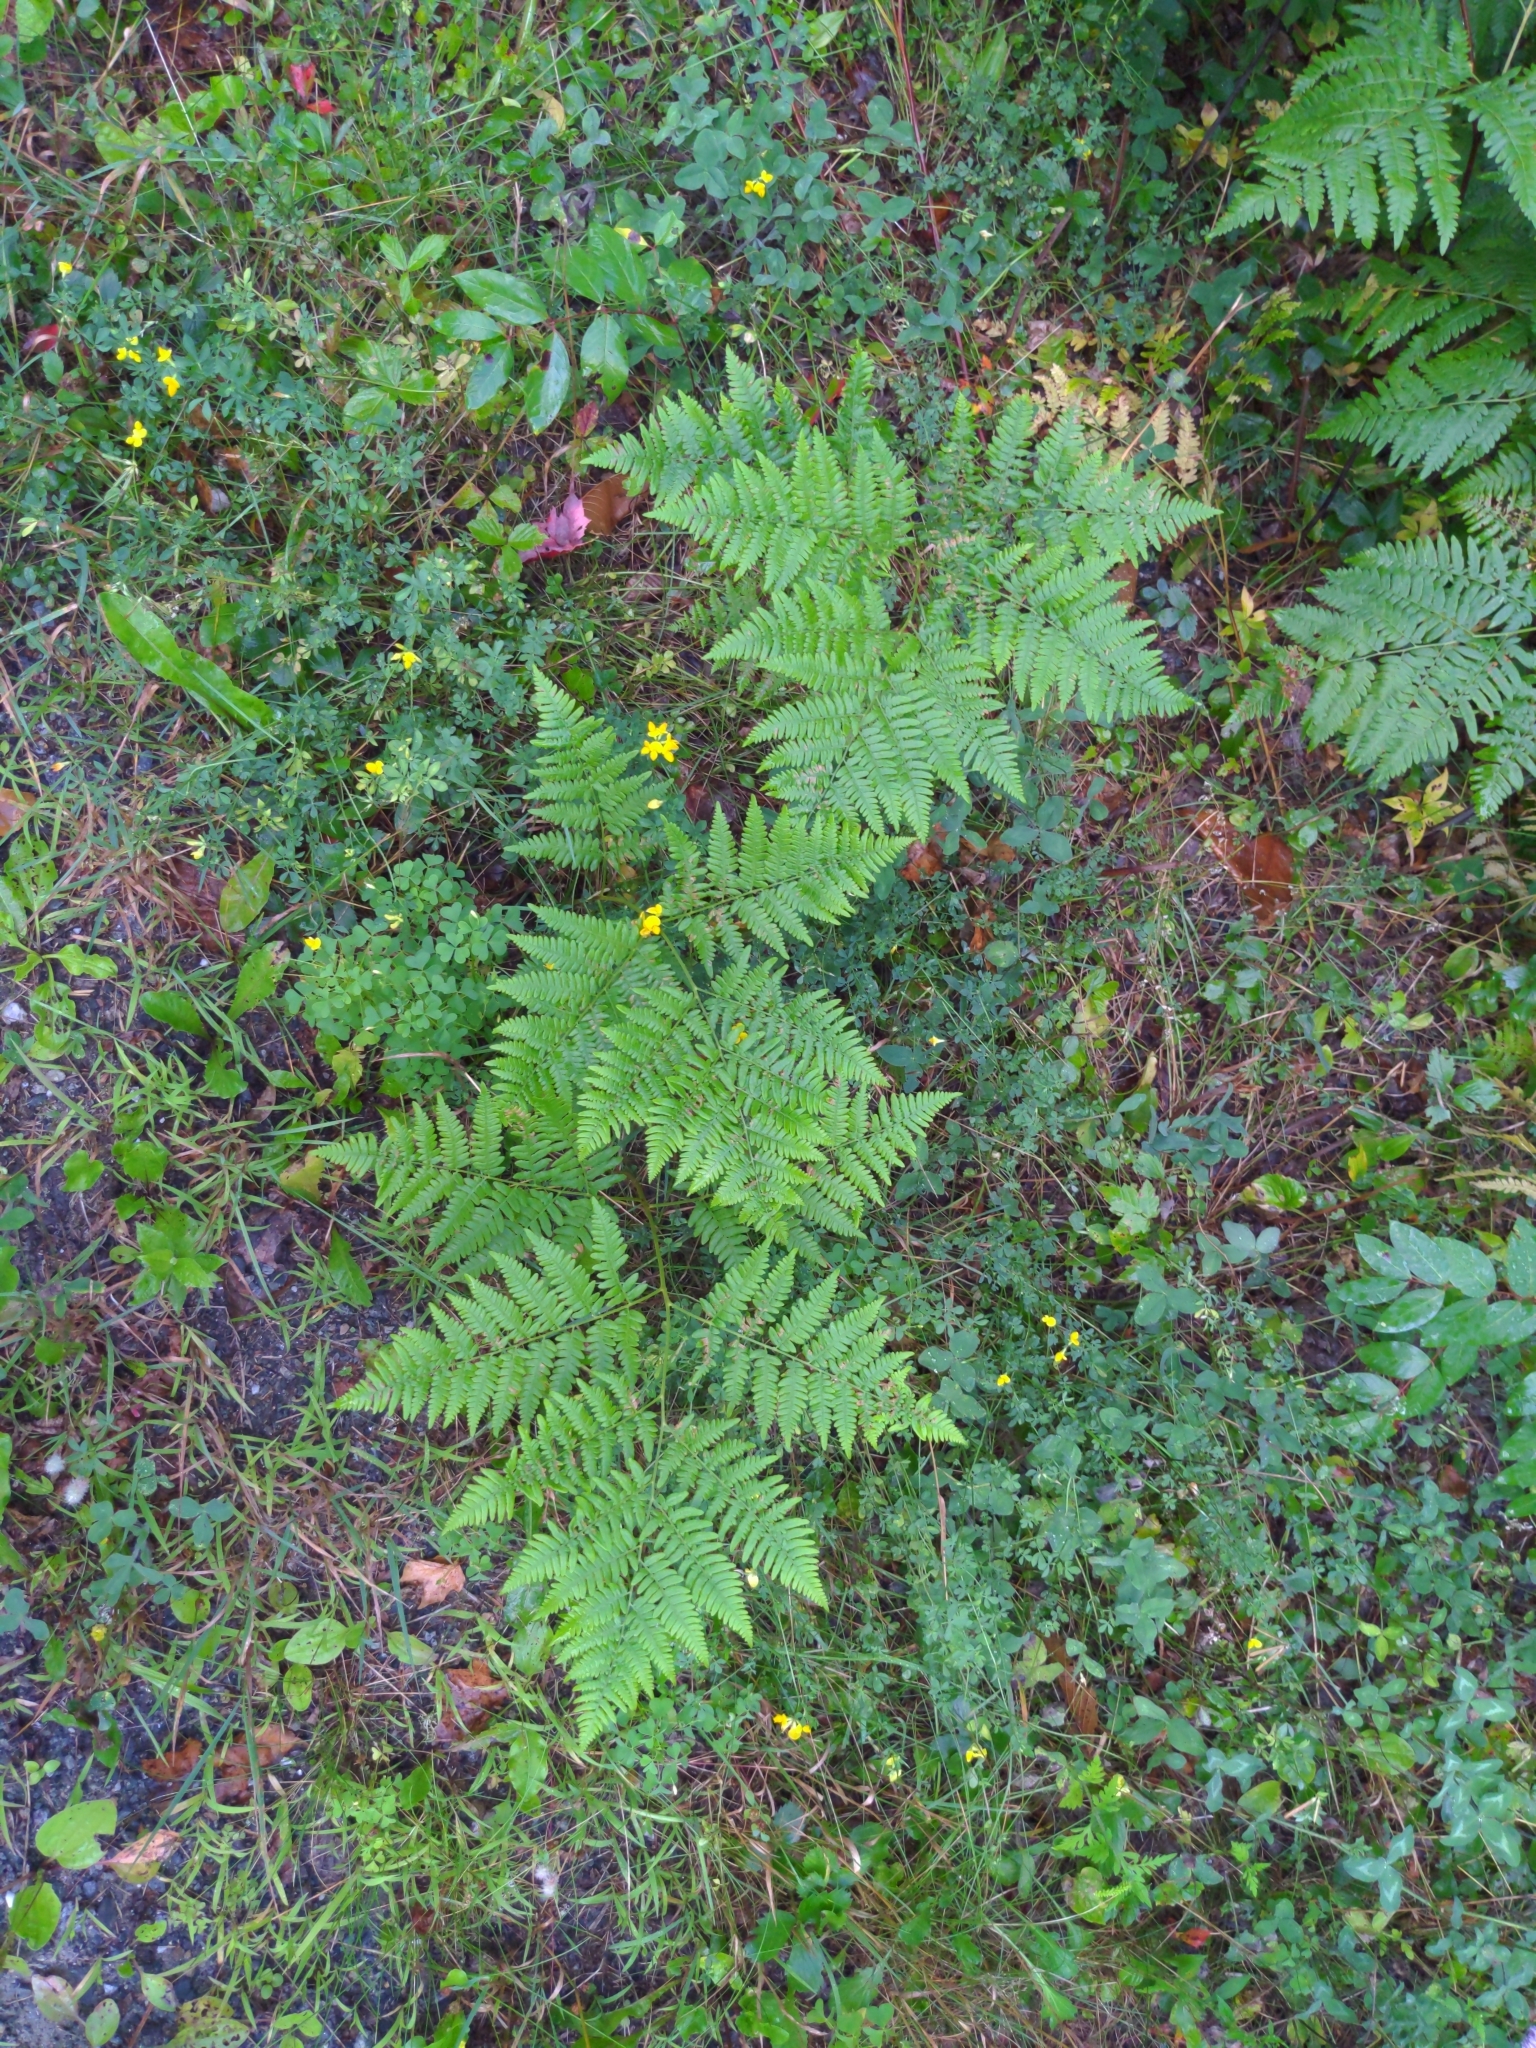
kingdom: Plantae
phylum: Tracheophyta
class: Polypodiopsida
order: Polypodiales
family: Dennstaedtiaceae
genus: Pteridium
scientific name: Pteridium aquilinum
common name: Bracken
